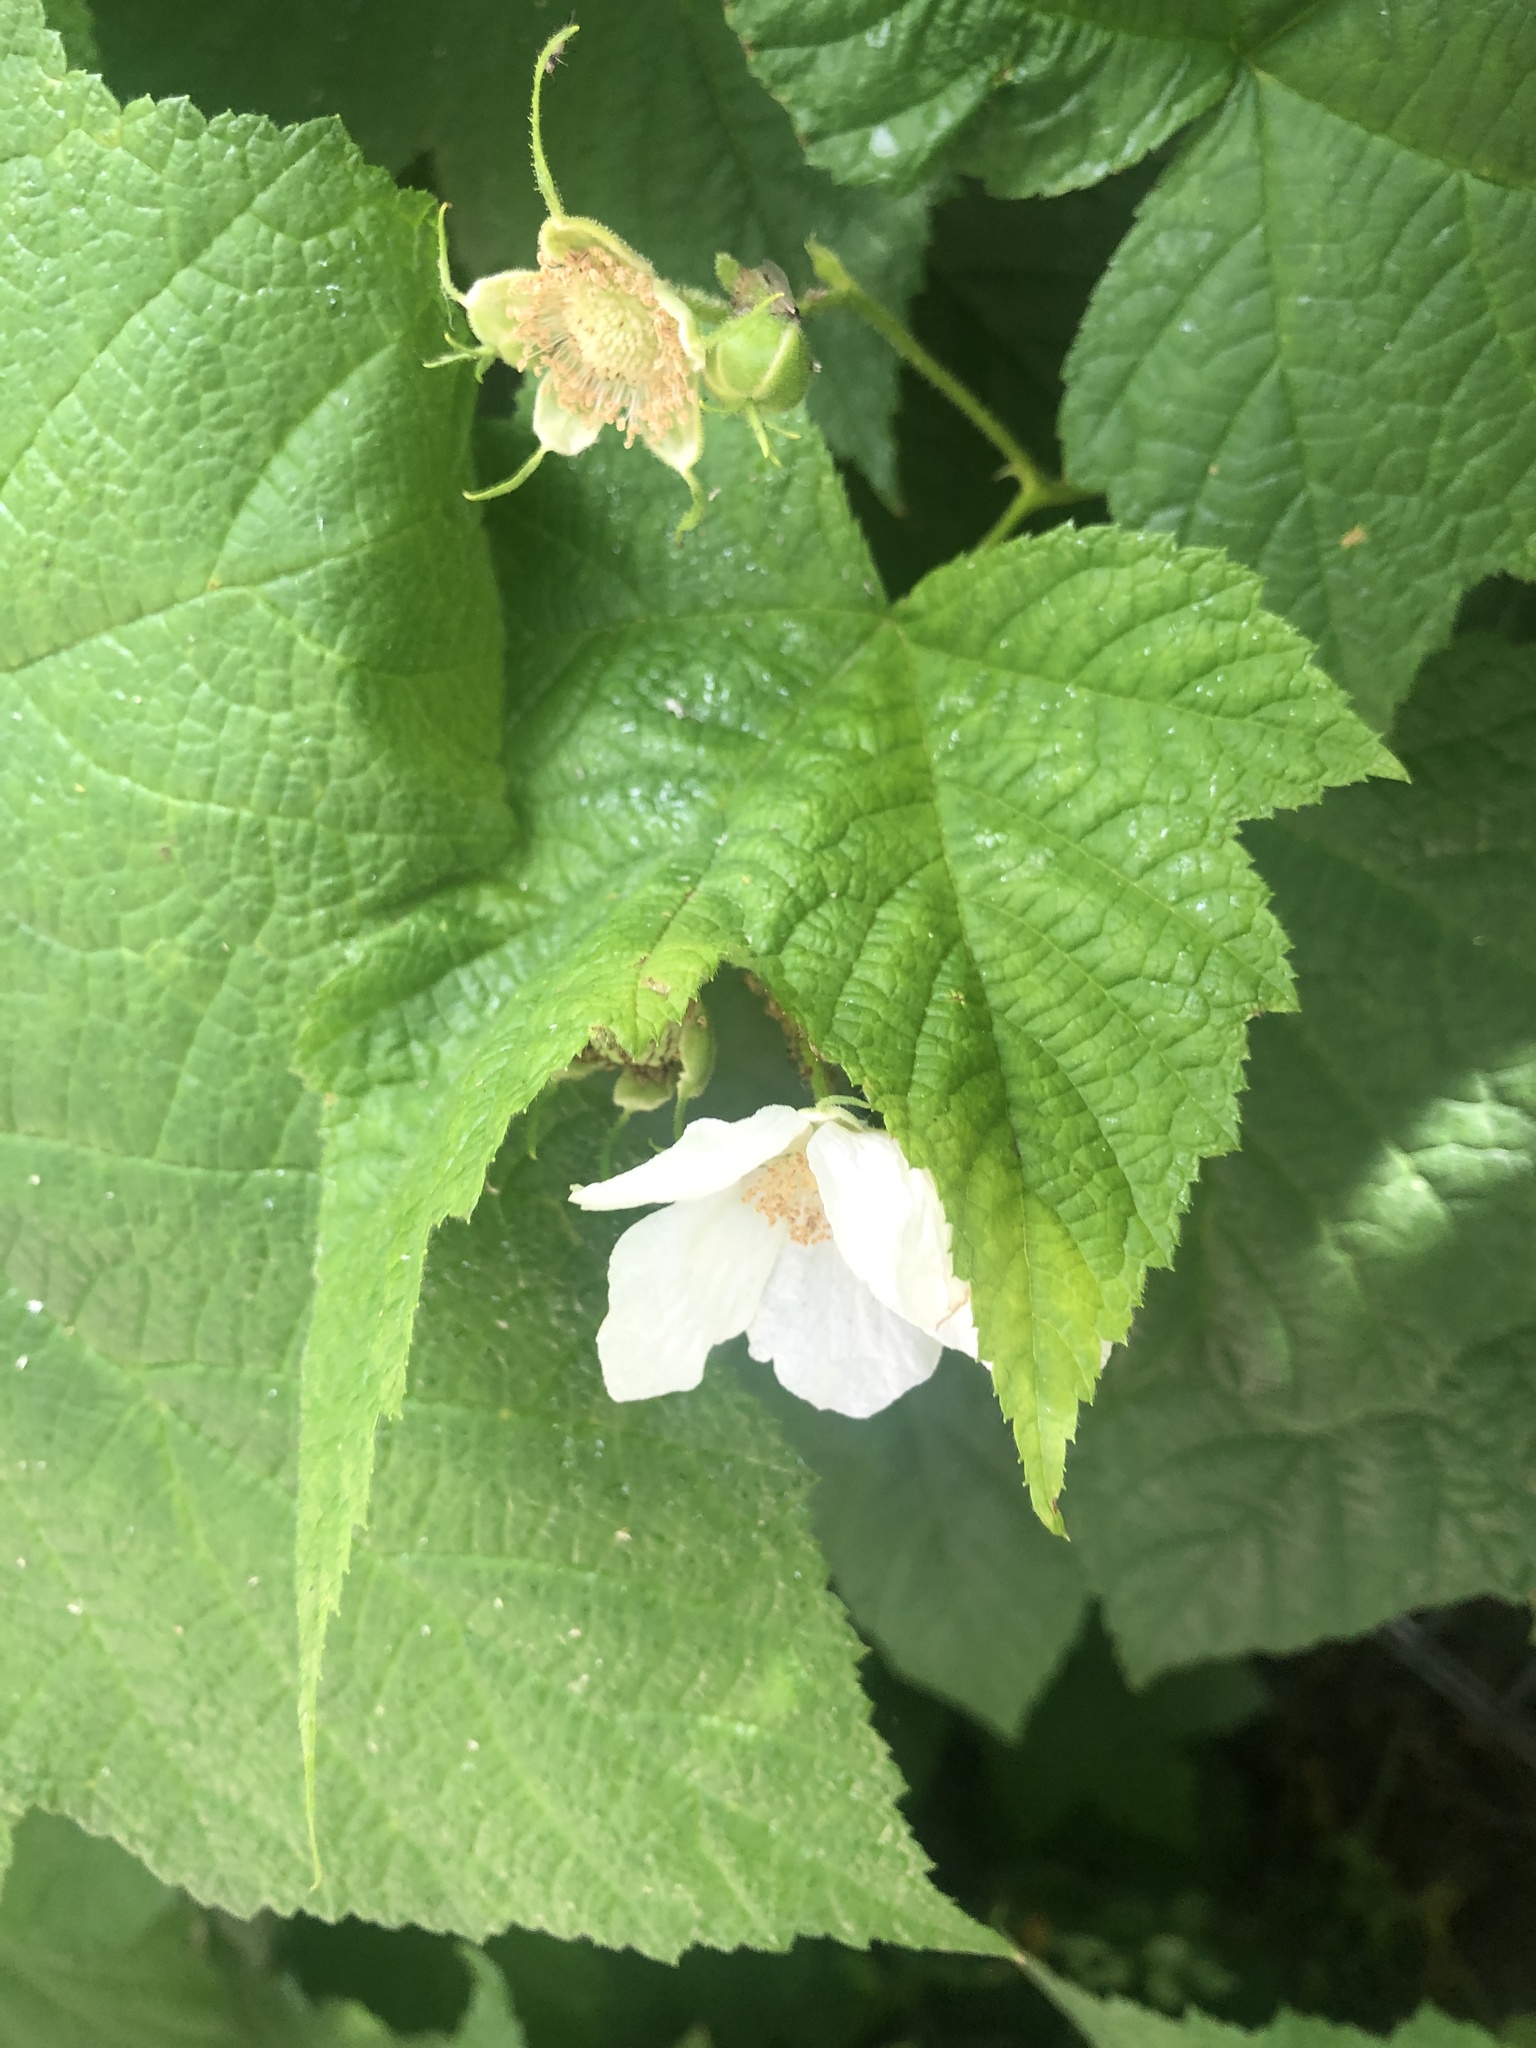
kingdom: Plantae
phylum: Tracheophyta
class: Magnoliopsida
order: Rosales
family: Rosaceae
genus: Rubus
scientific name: Rubus parviflorus
